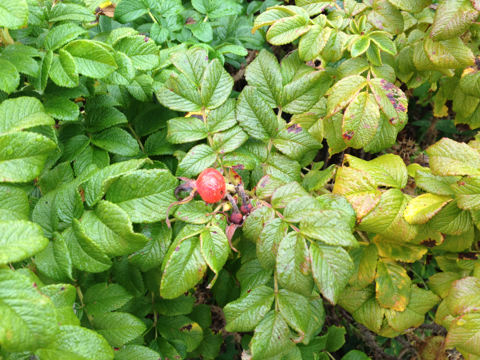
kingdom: Plantae
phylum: Tracheophyta
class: Magnoliopsida
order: Rosales
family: Rosaceae
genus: Rosa
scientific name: Rosa rugosa
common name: Japanese rose
